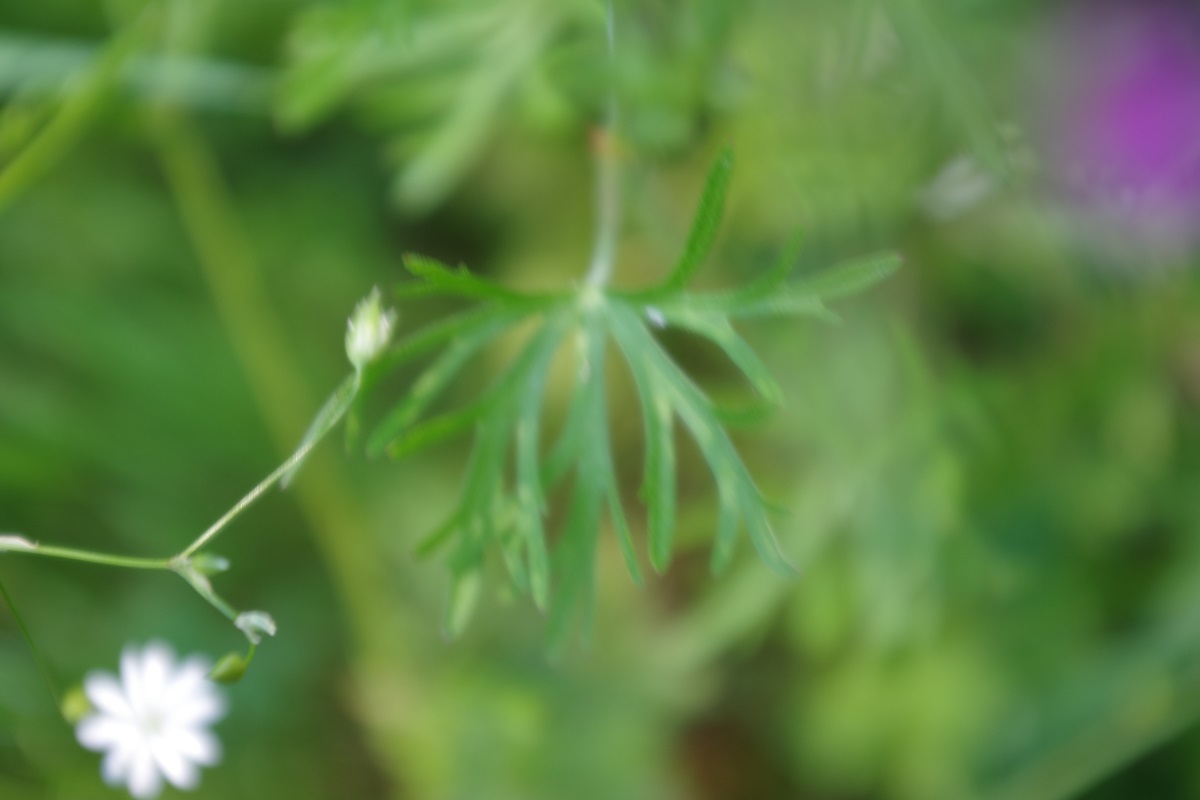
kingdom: Plantae
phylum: Tracheophyta
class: Magnoliopsida
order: Geraniales
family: Geraniaceae
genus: Geranium
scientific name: Geranium dissectum
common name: Cut-leaved crane's-bill
